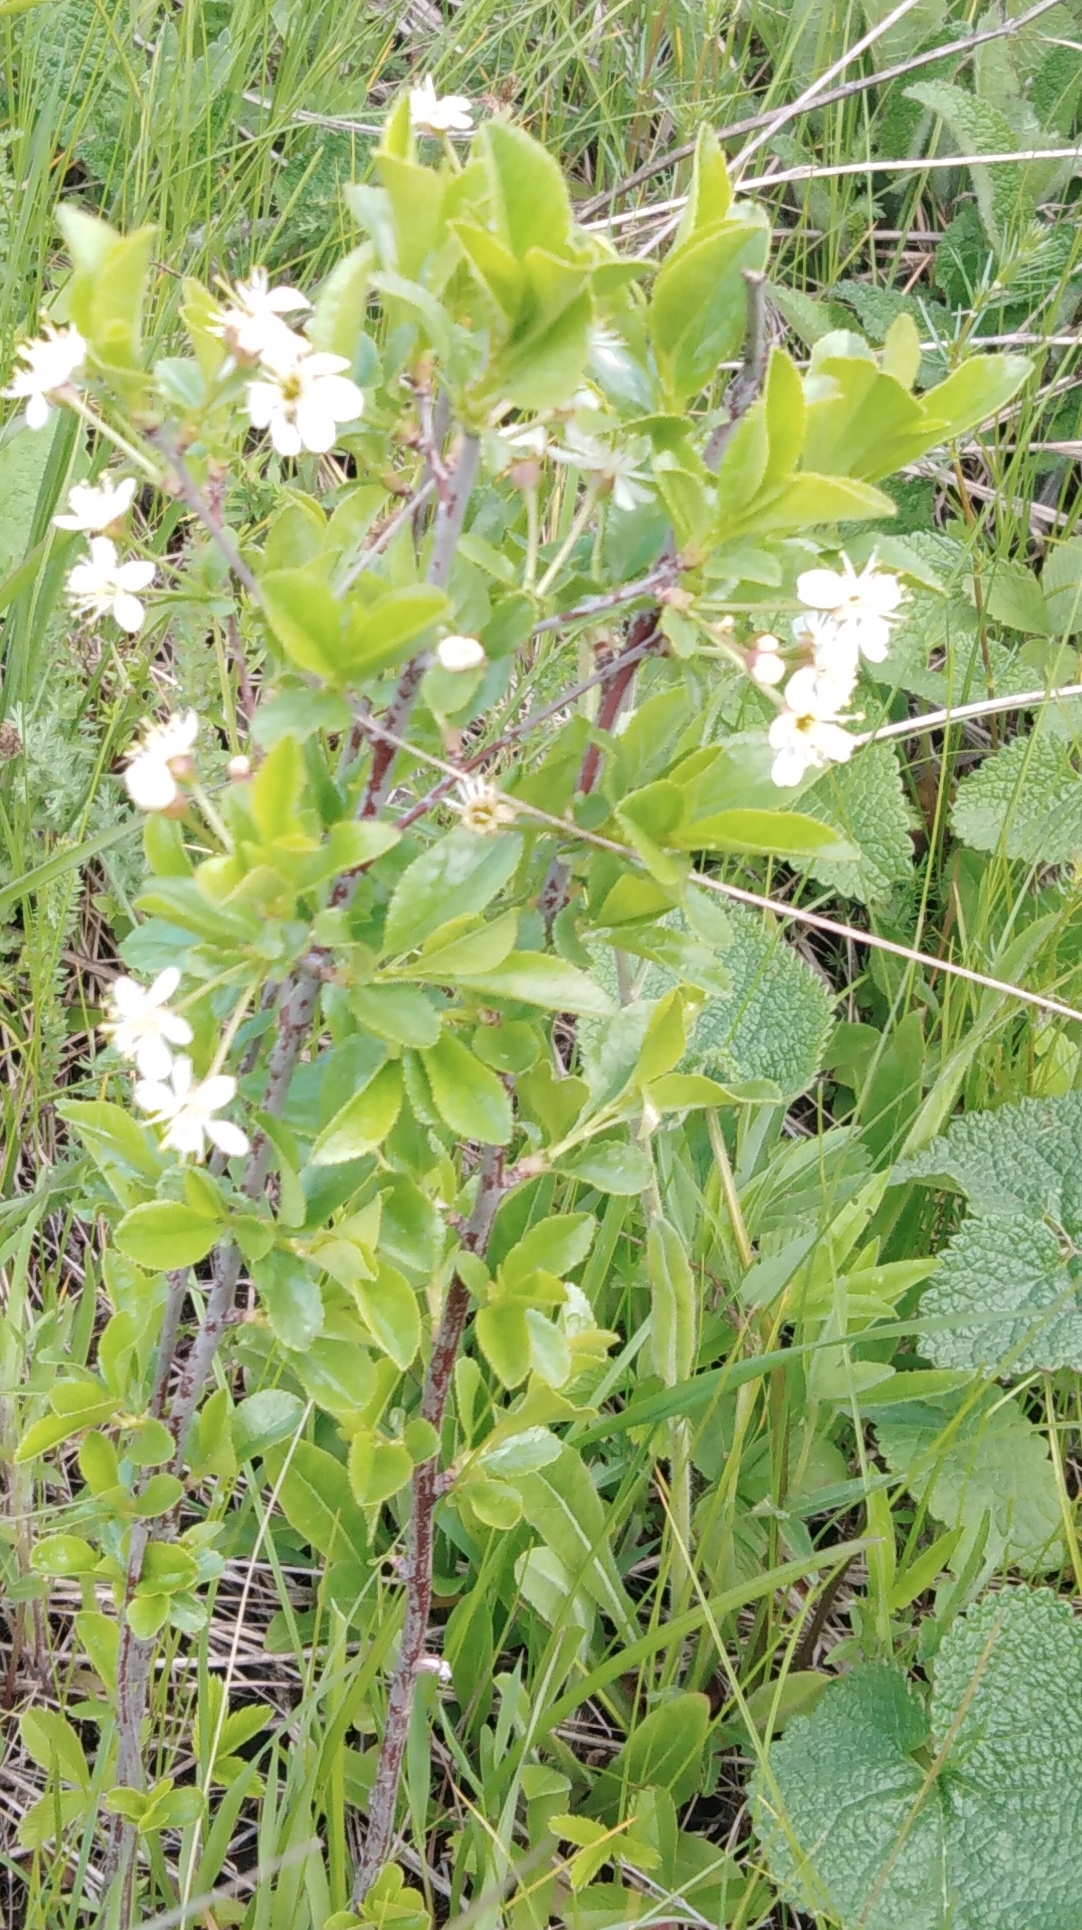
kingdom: Plantae
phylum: Tracheophyta
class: Magnoliopsida
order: Rosales
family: Rosaceae
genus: Prunus
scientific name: Prunus fruticosa
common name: European dwarf cherry
